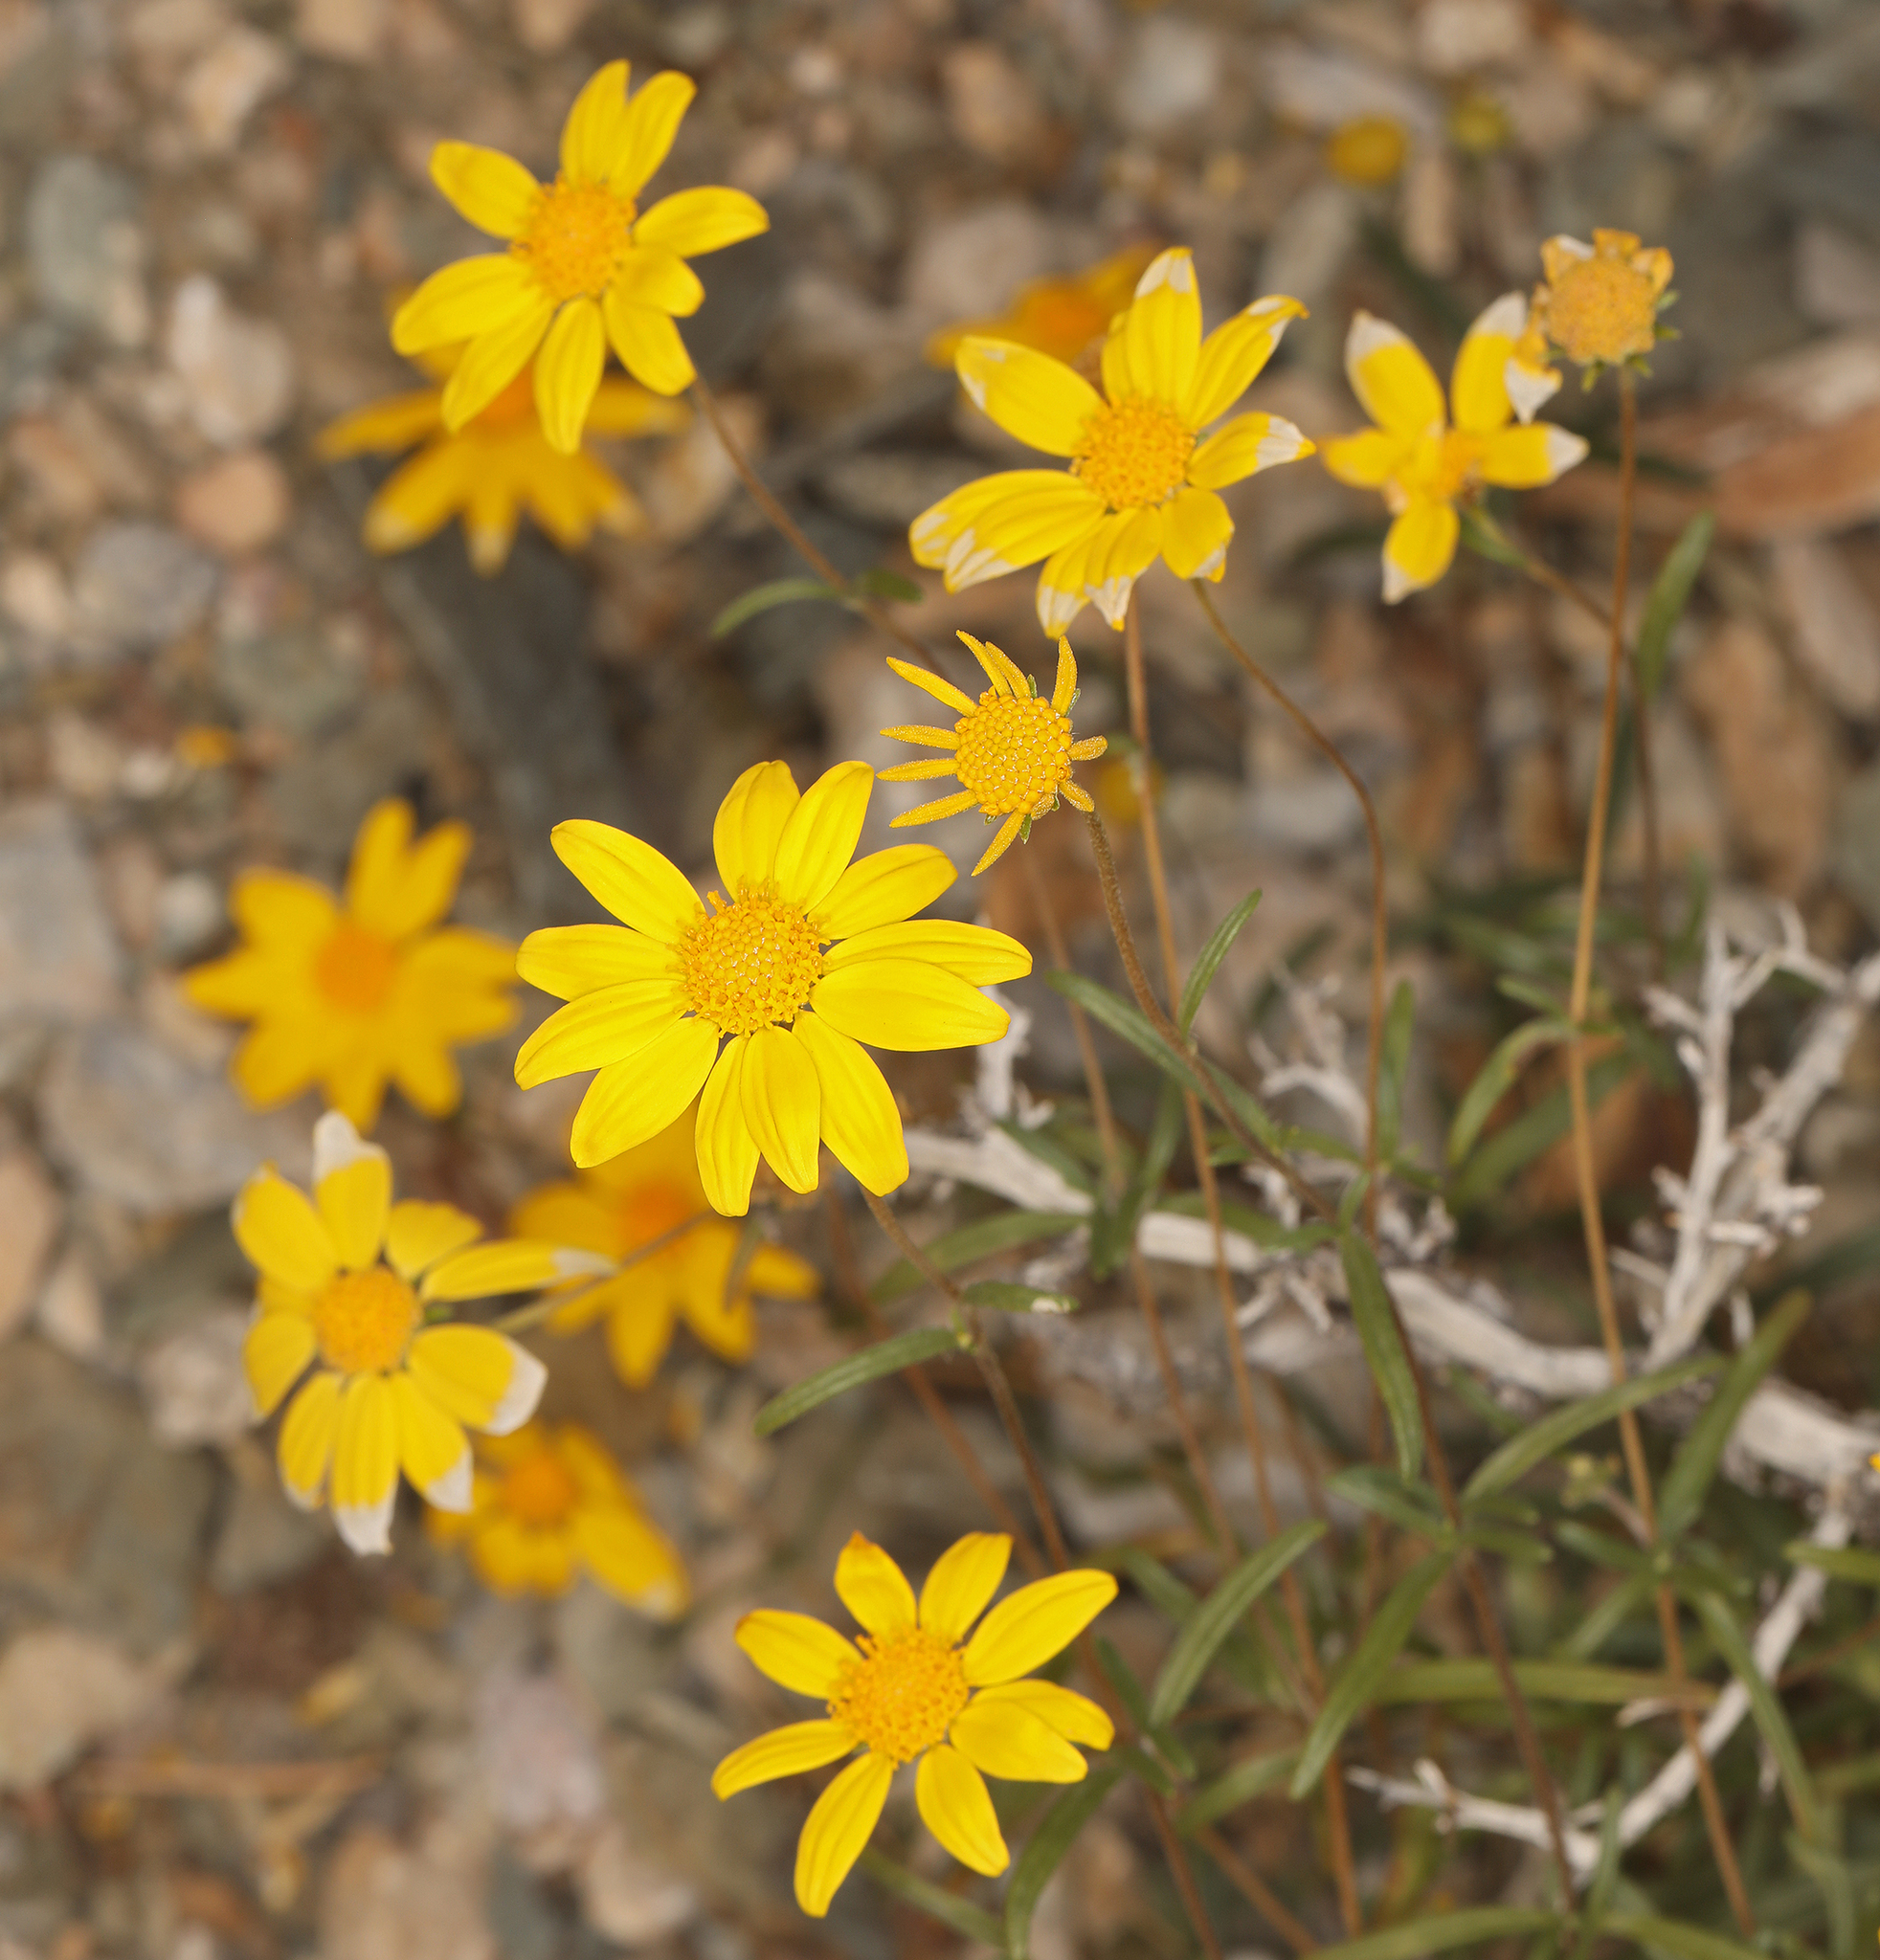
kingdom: Plantae
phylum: Tracheophyta
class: Magnoliopsida
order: Asterales
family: Asteraceae
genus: Heliomeris
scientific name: Heliomeris multiflora
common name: Showy goldeneye
